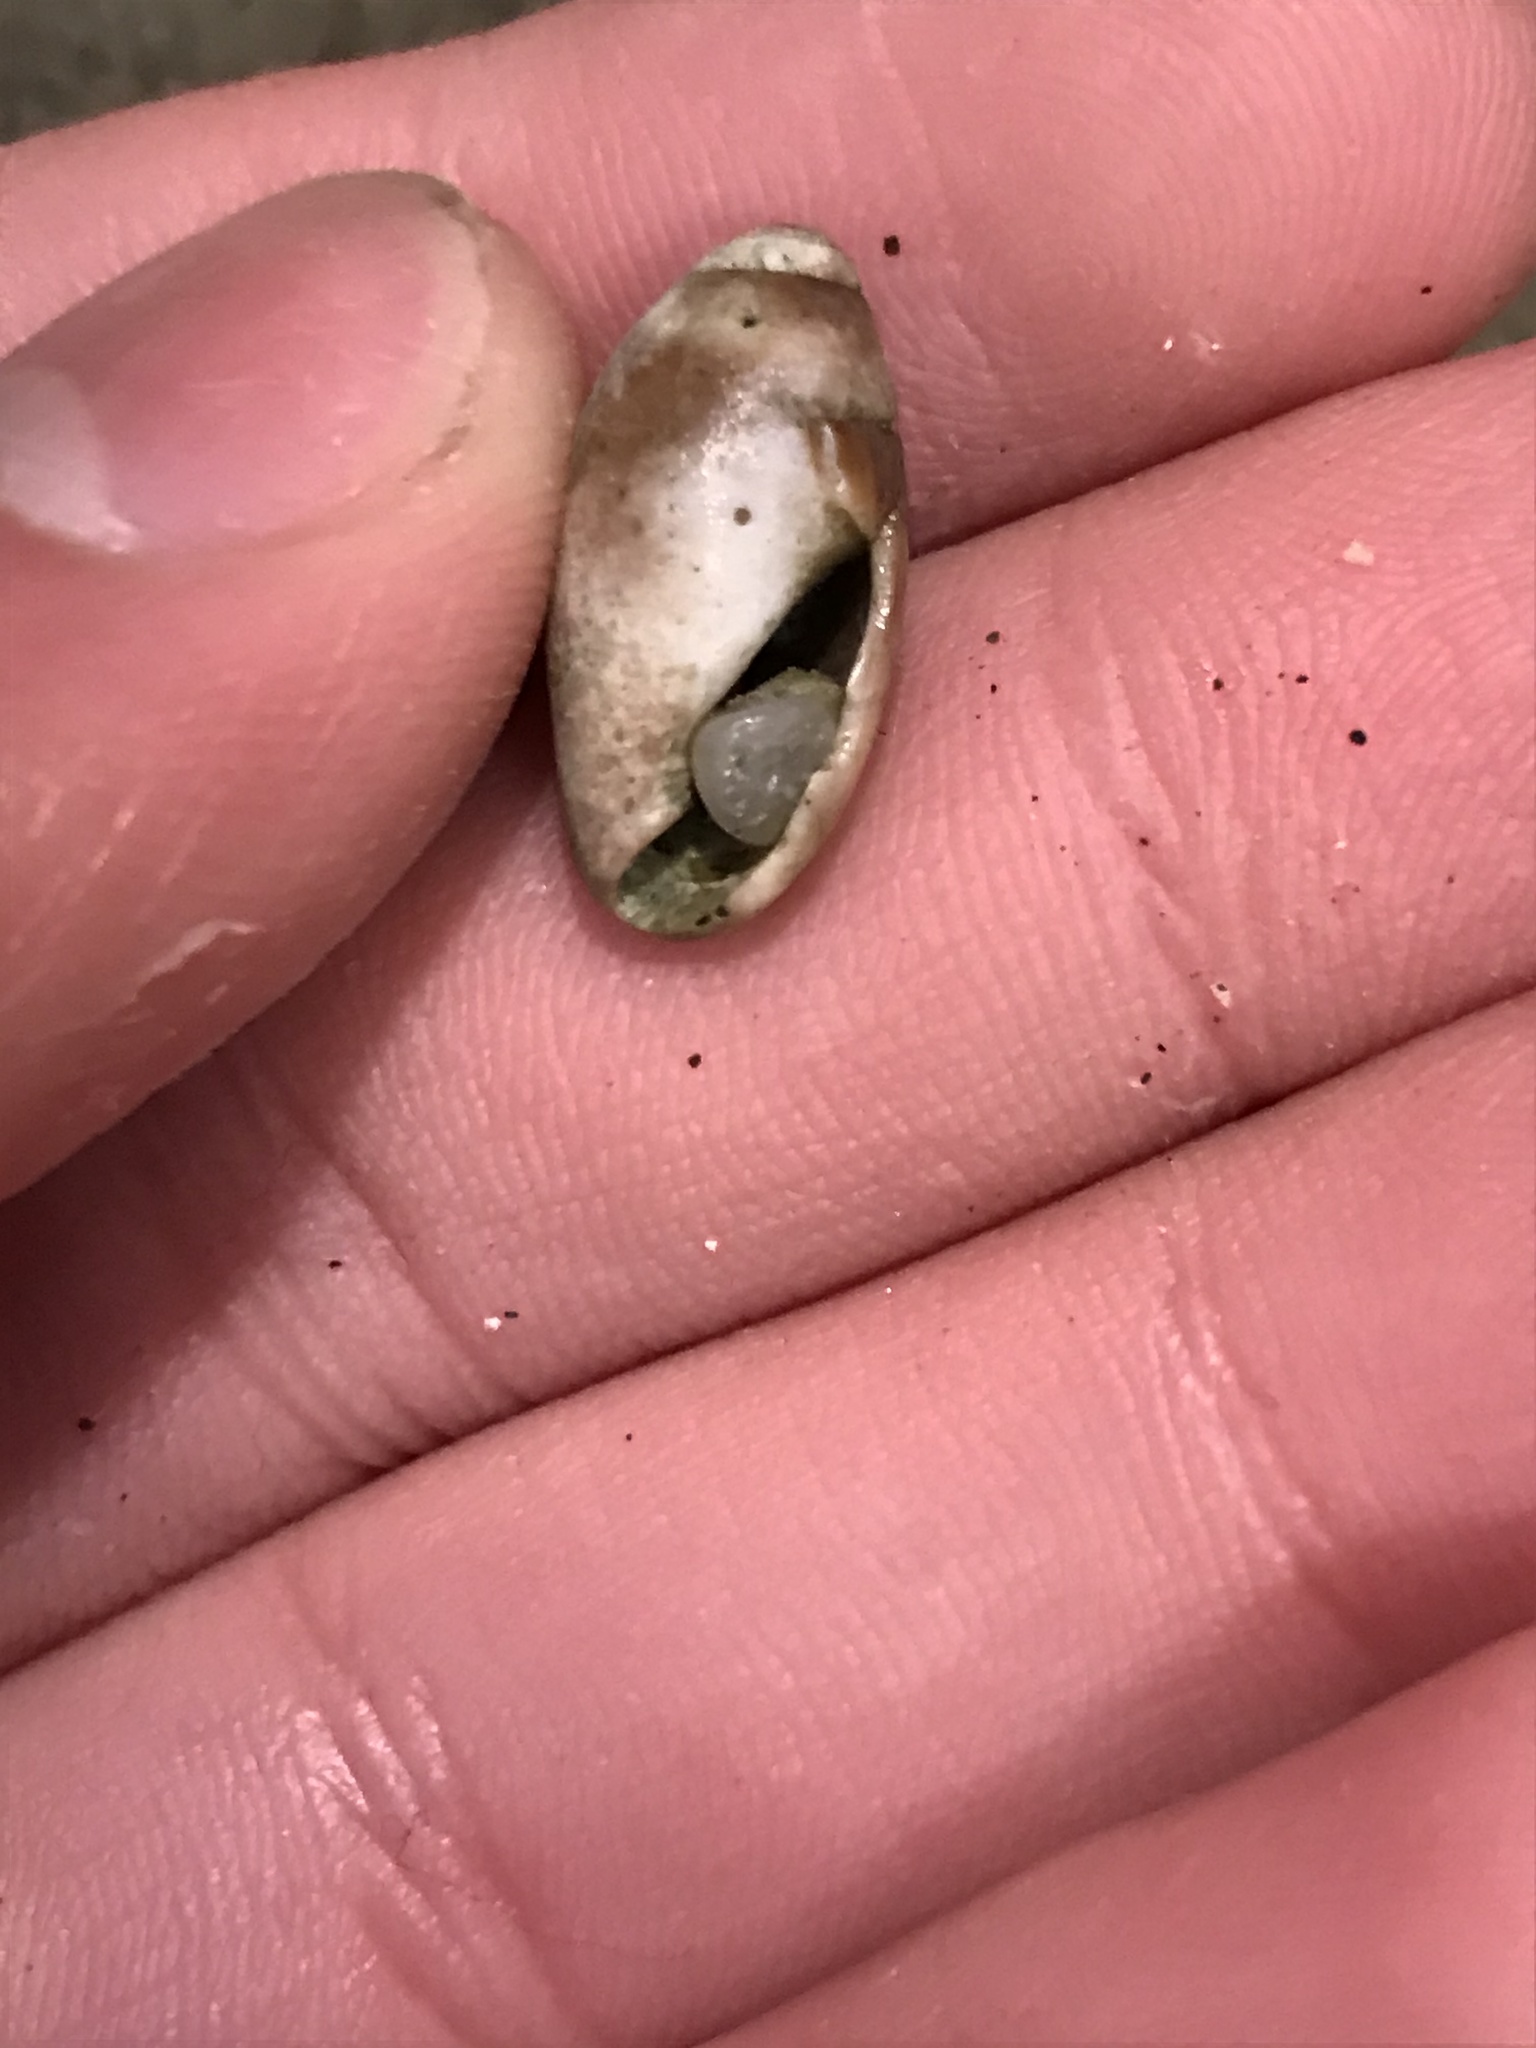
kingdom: Animalia
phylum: Mollusca
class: Gastropoda
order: Neogastropoda
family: Olividae
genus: Callianax
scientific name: Callianax biplicata
